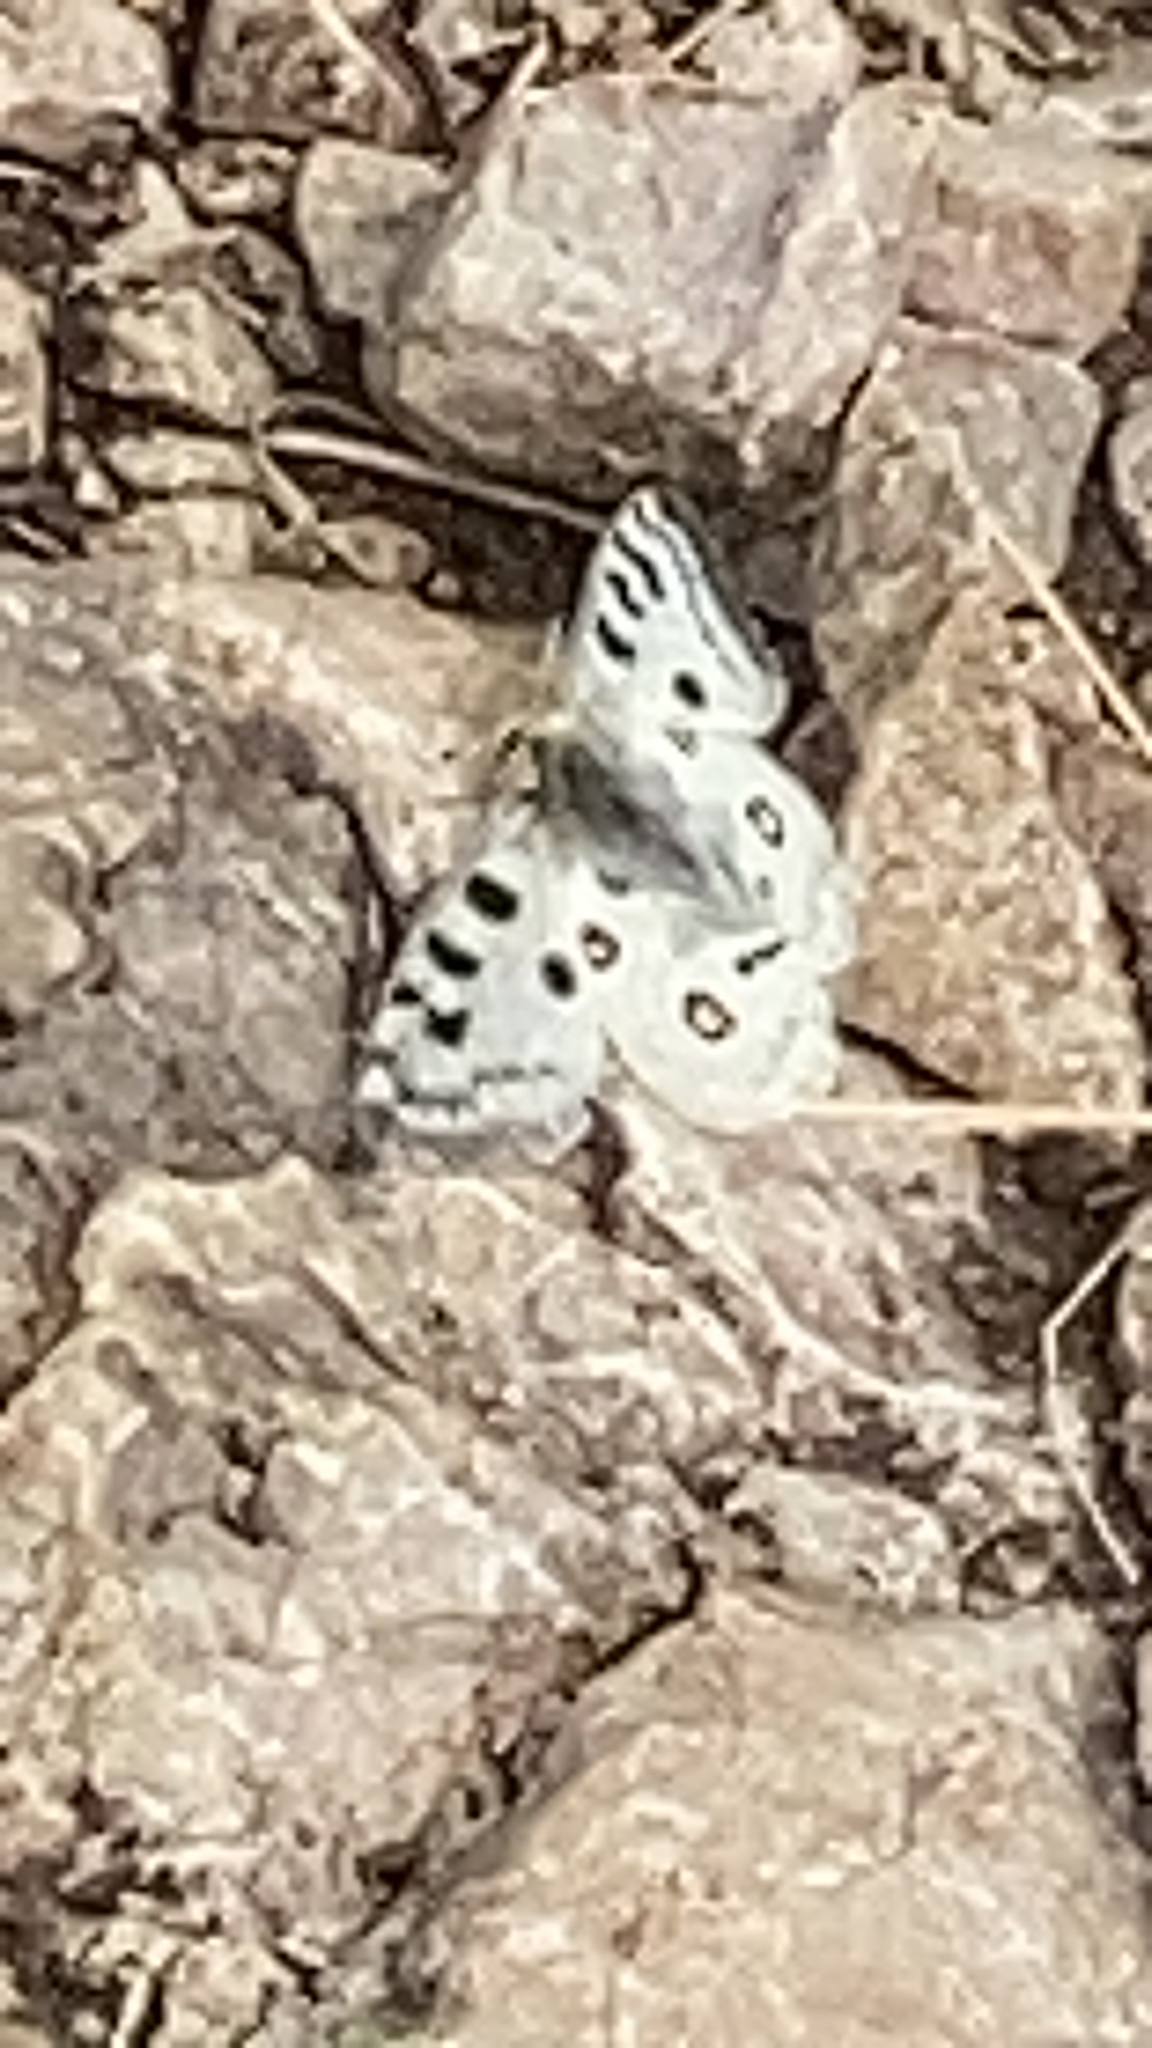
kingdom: Animalia
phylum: Arthropoda
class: Insecta
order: Lepidoptera
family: Papilionidae
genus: Parnassius
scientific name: Parnassius apollo
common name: Apollo
